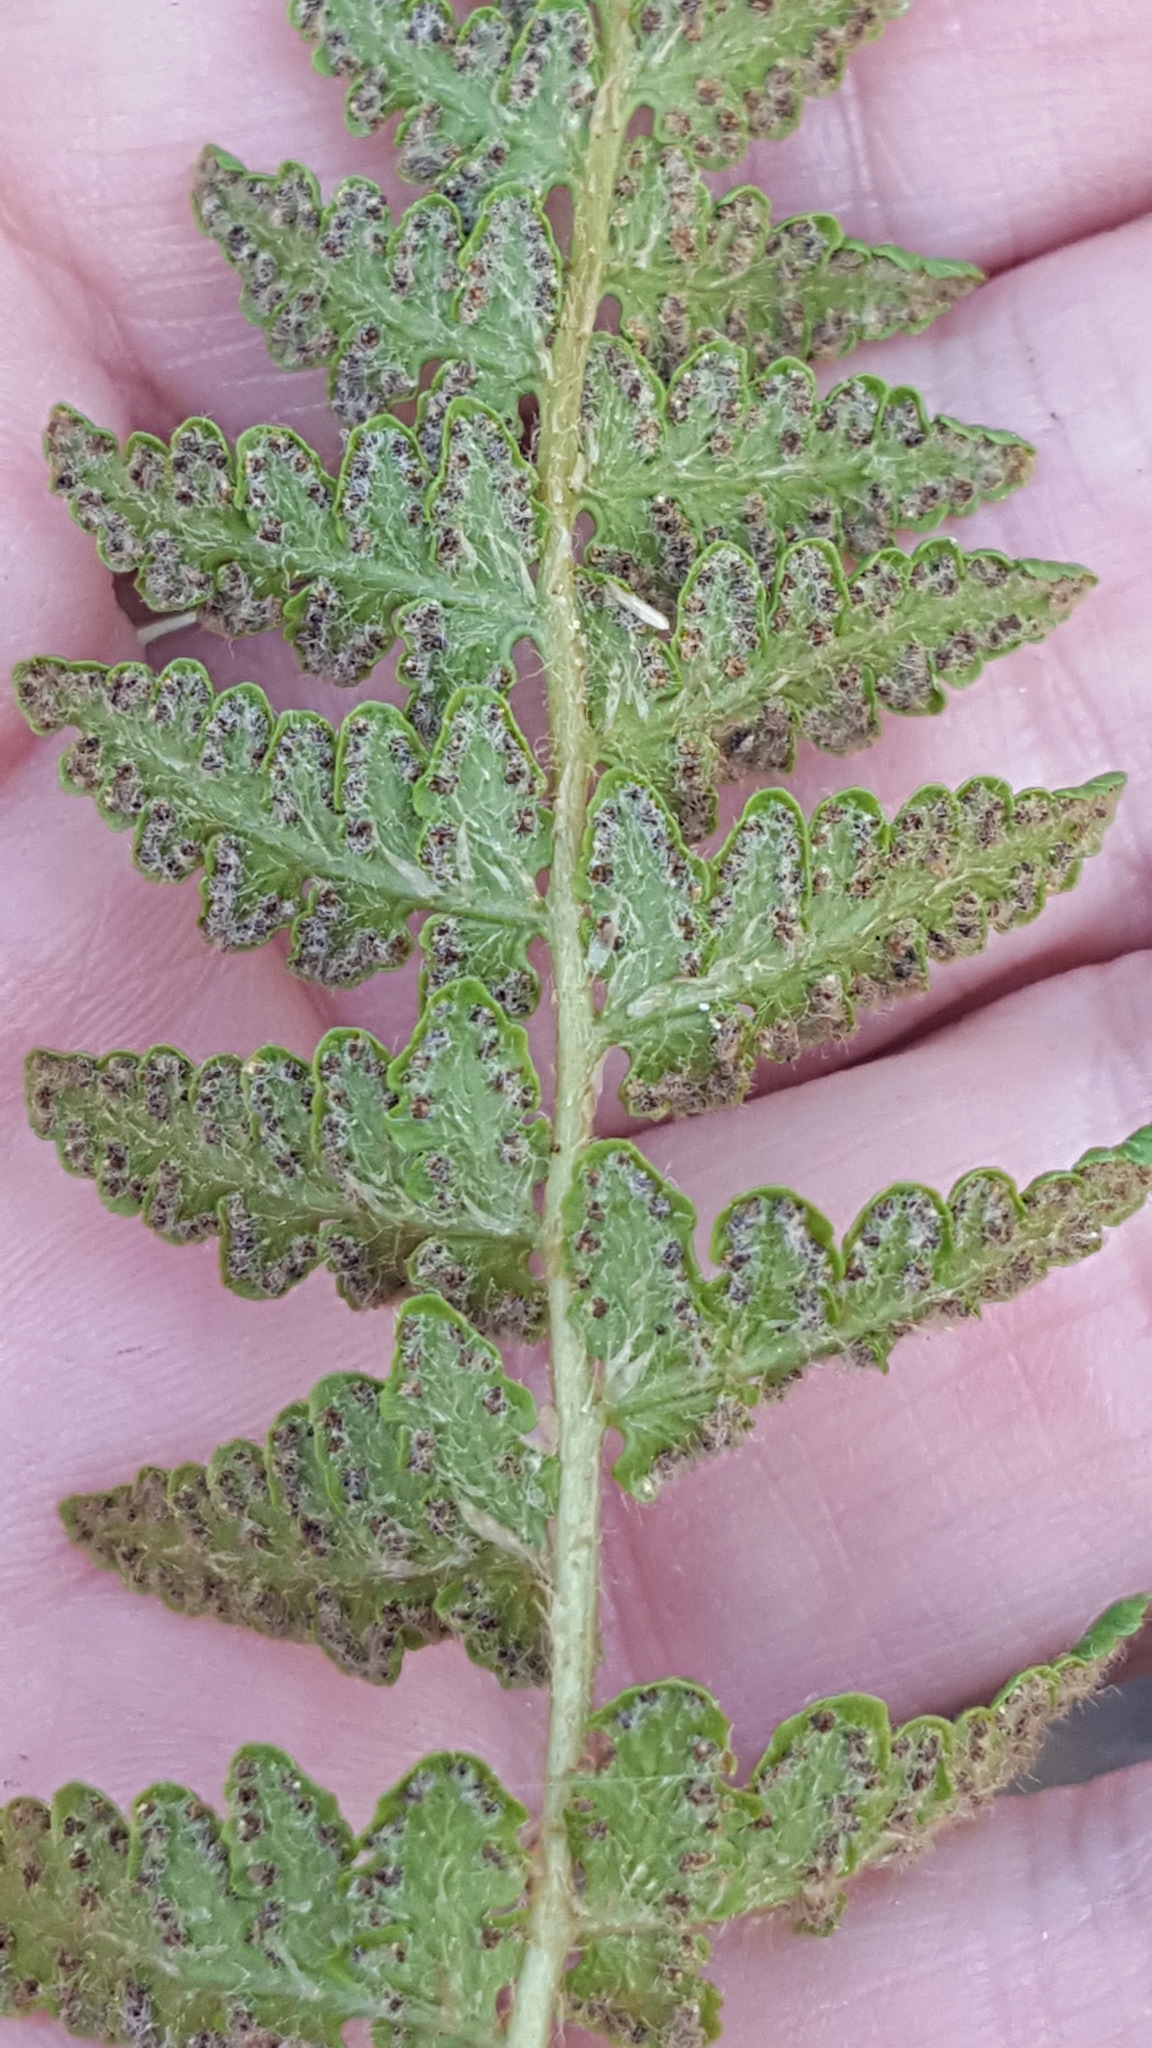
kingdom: Plantae
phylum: Tracheophyta
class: Polypodiopsida
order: Polypodiales
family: Woodsiaceae
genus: Woodsia
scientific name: Woodsia ilvensis
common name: Fragrant woodsia
